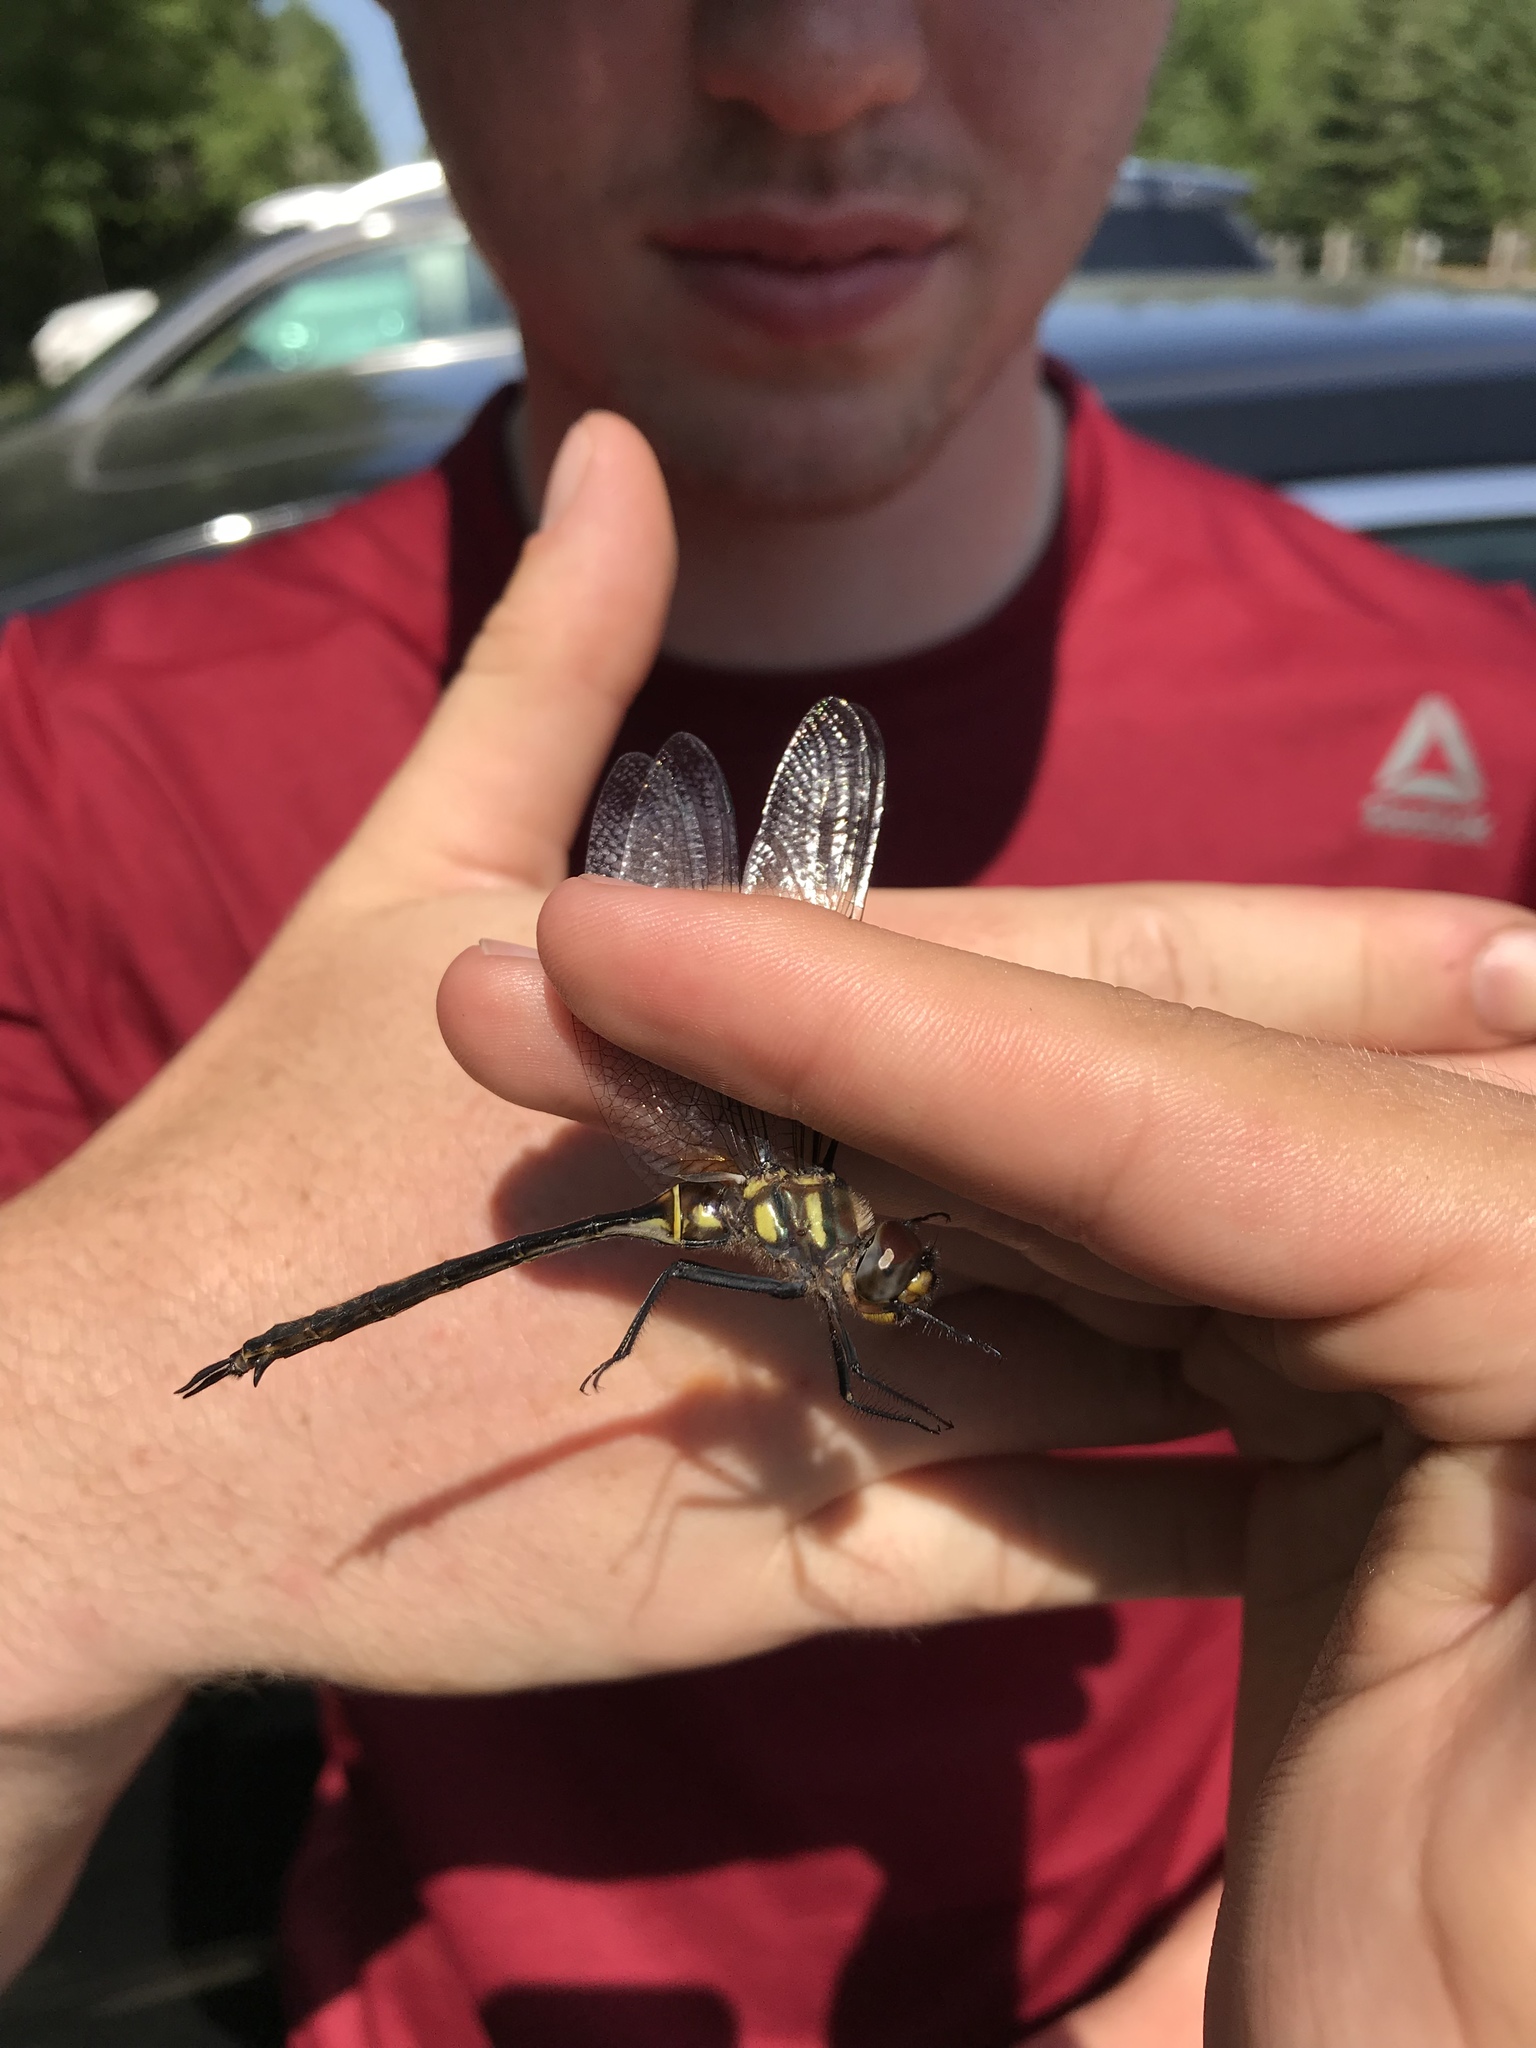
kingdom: Animalia
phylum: Arthropoda
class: Insecta
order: Odonata
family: Corduliidae
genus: Somatochlora
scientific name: Somatochlora tenebrosa
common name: Clamp-tipped emerald
